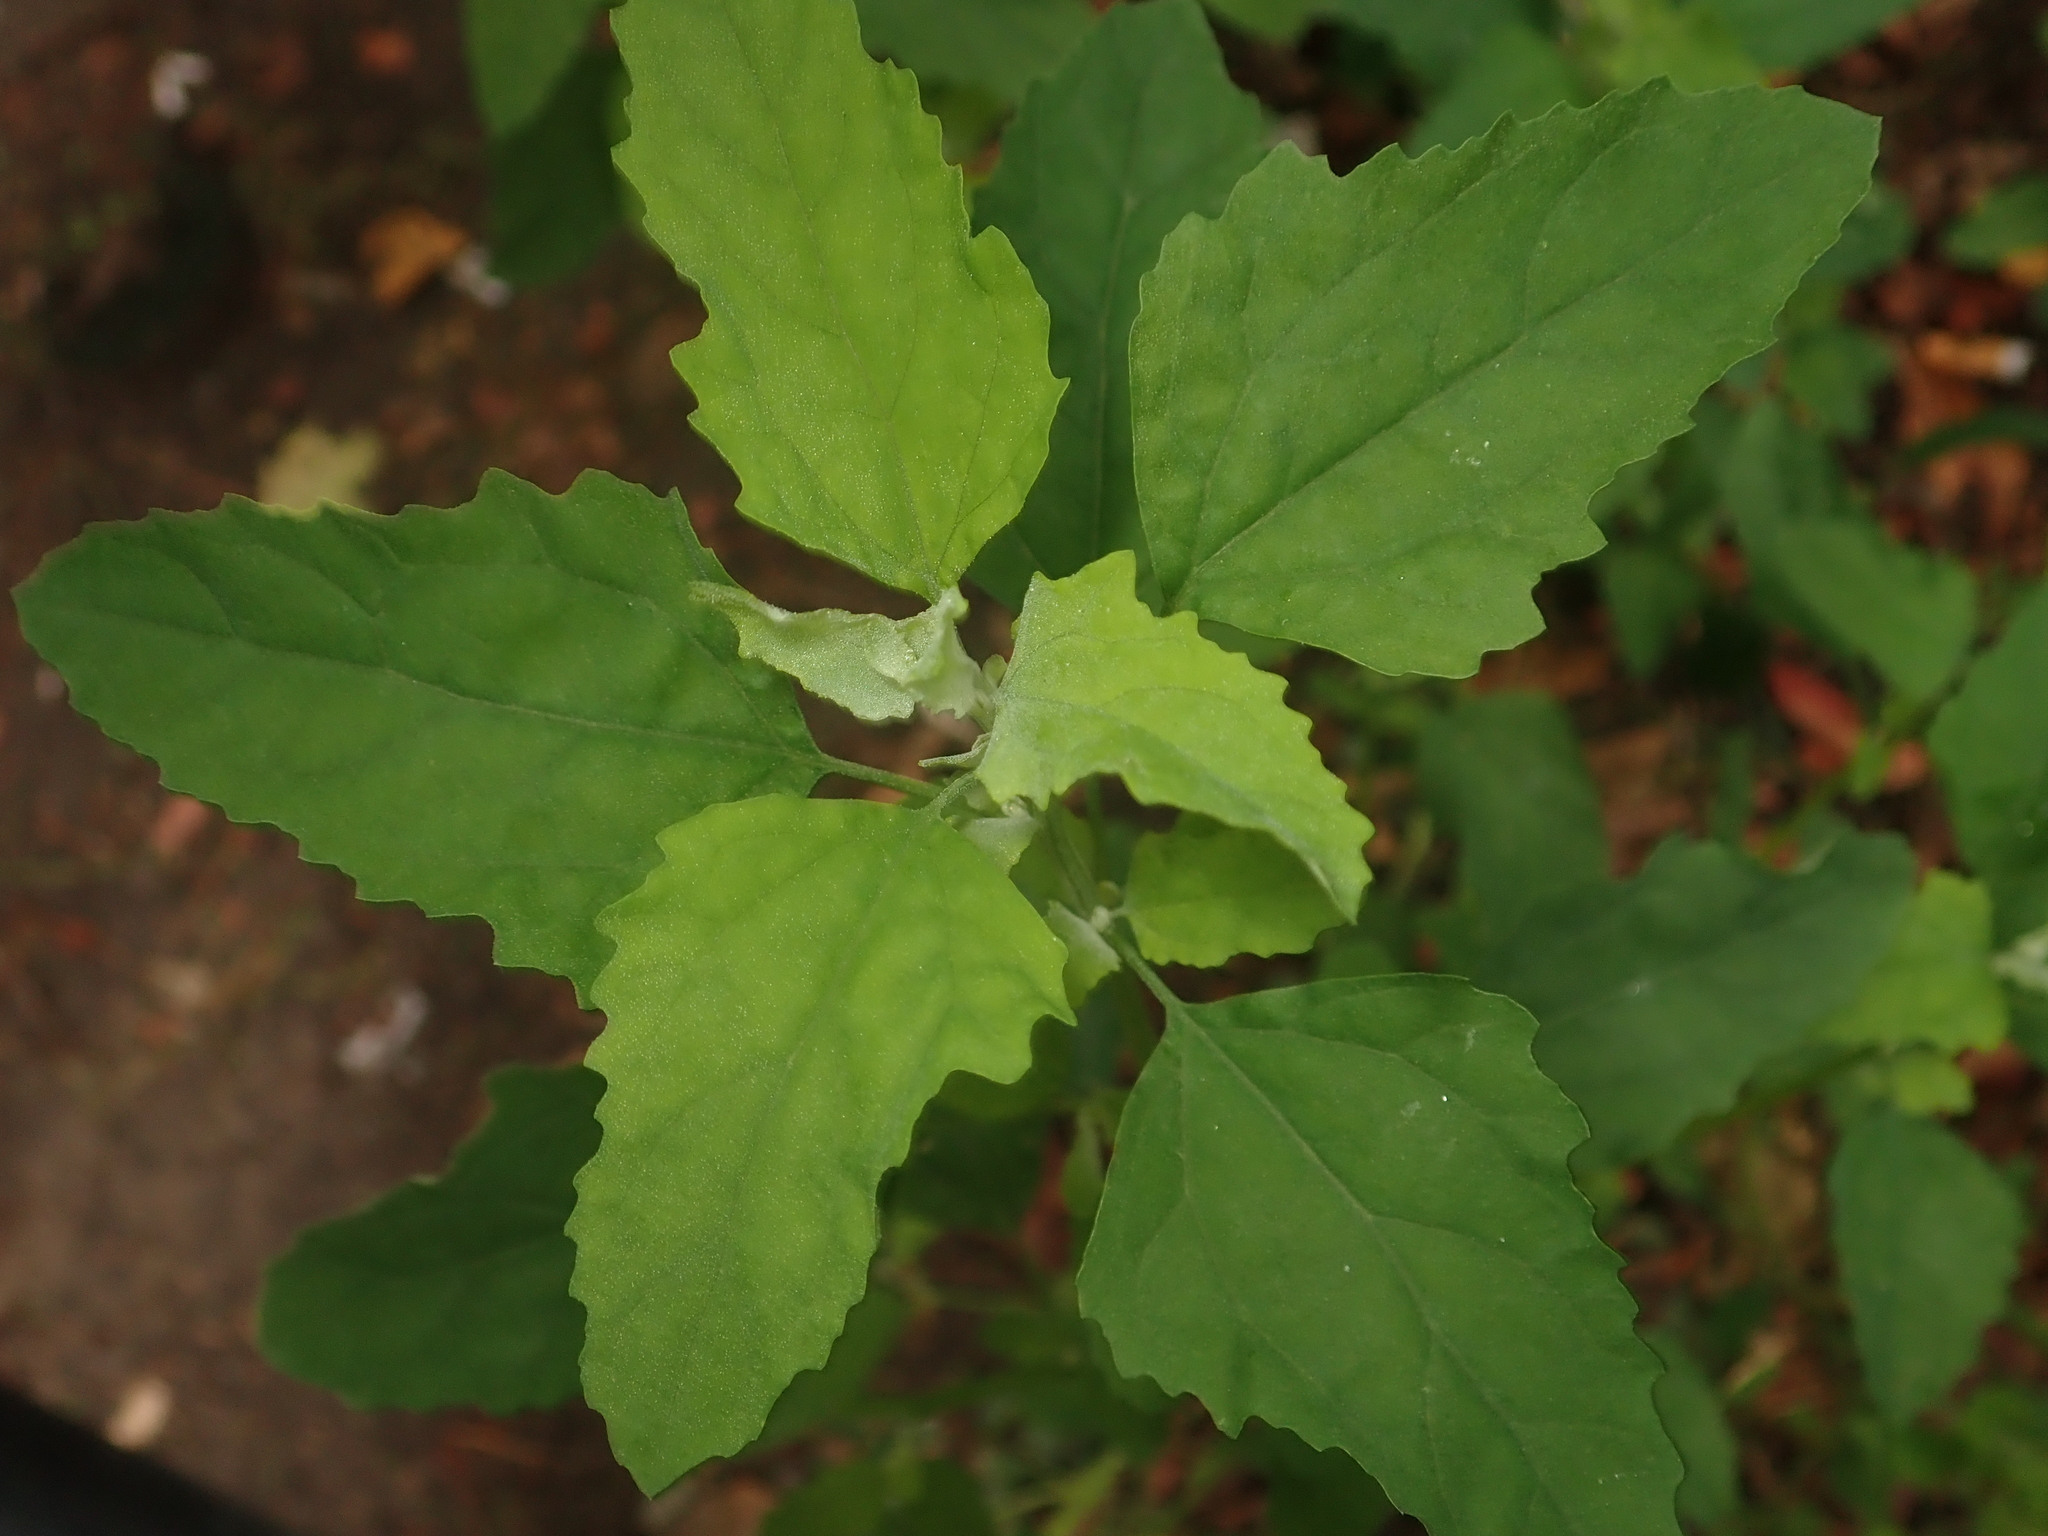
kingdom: Plantae
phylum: Tracheophyta
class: Magnoliopsida
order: Caryophyllales
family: Amaranthaceae
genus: Chenopodium
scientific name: Chenopodium album
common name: Fat-hen
